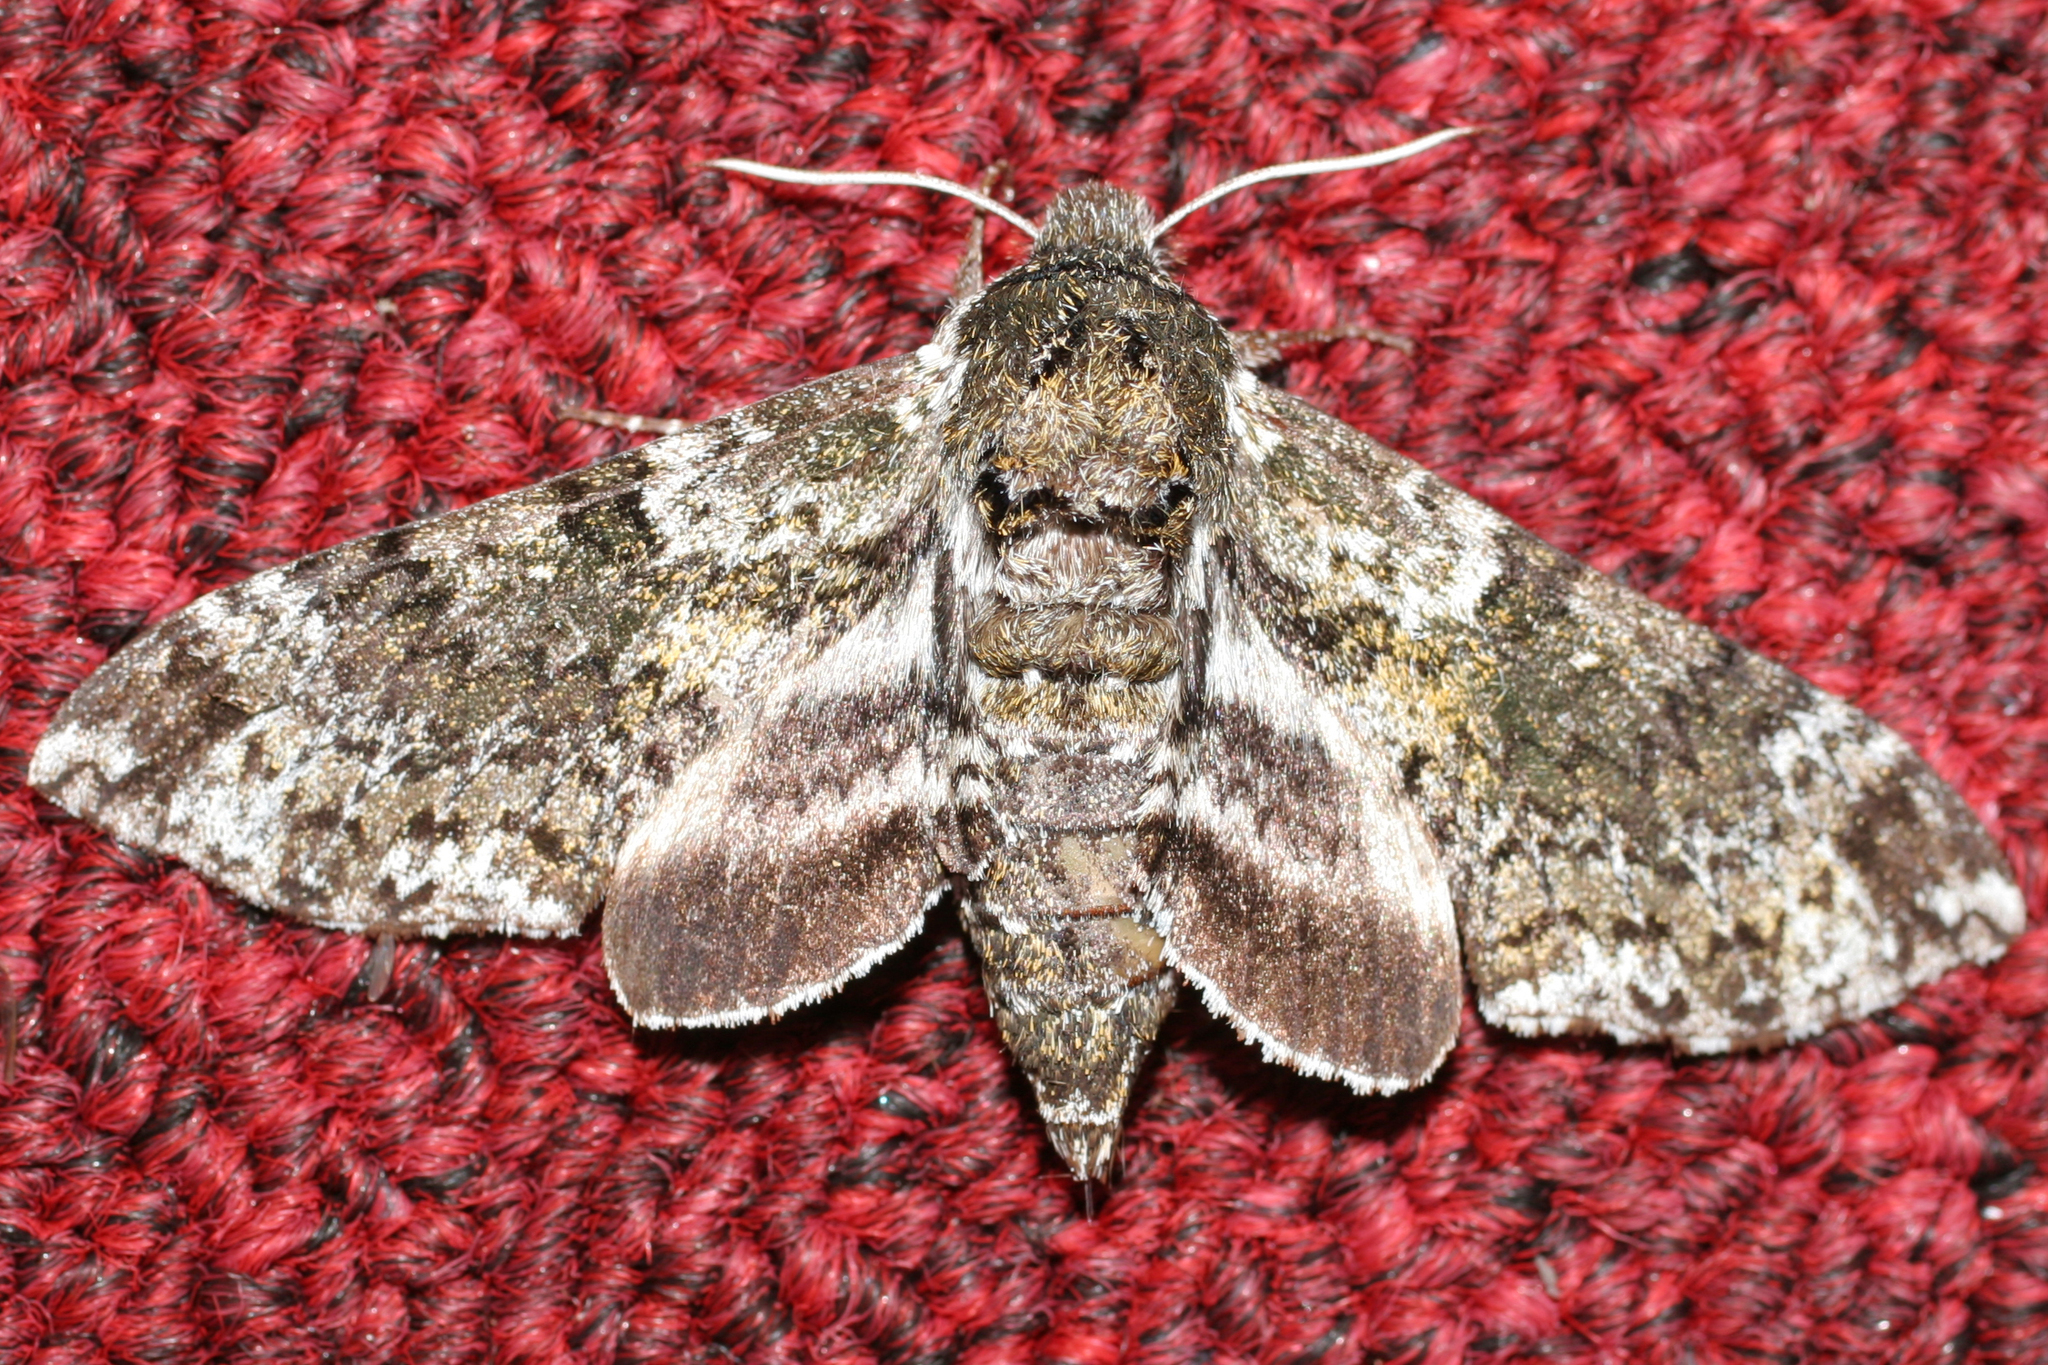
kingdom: Animalia
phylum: Arthropoda
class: Insecta
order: Lepidoptera
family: Sphingidae
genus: Dolba
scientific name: Dolba hyloeus
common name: Pawpaw sphinx
